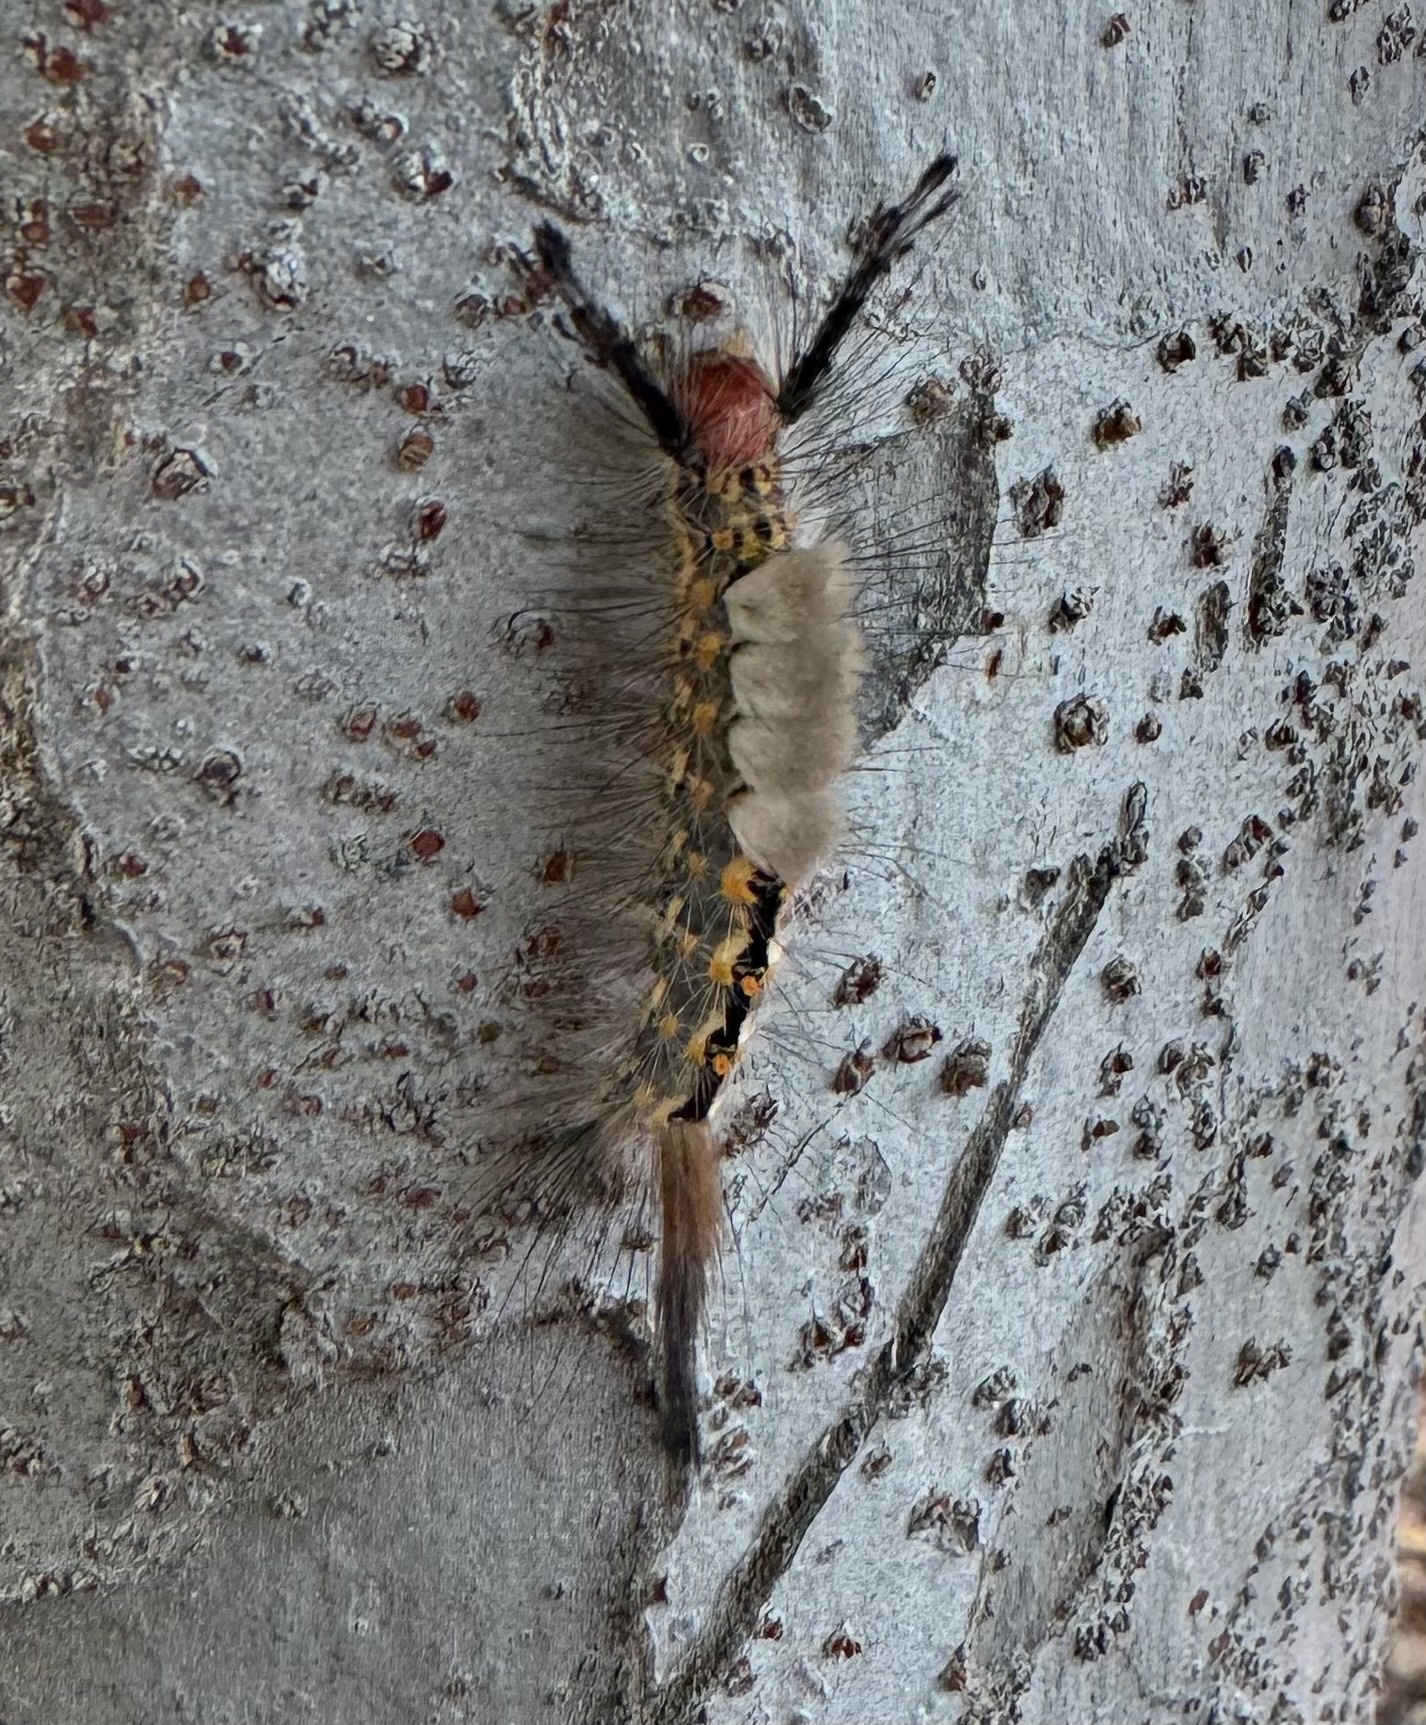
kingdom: Animalia
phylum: Arthropoda
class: Insecta
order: Lepidoptera
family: Erebidae
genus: Orgyia
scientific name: Orgyia detrita
